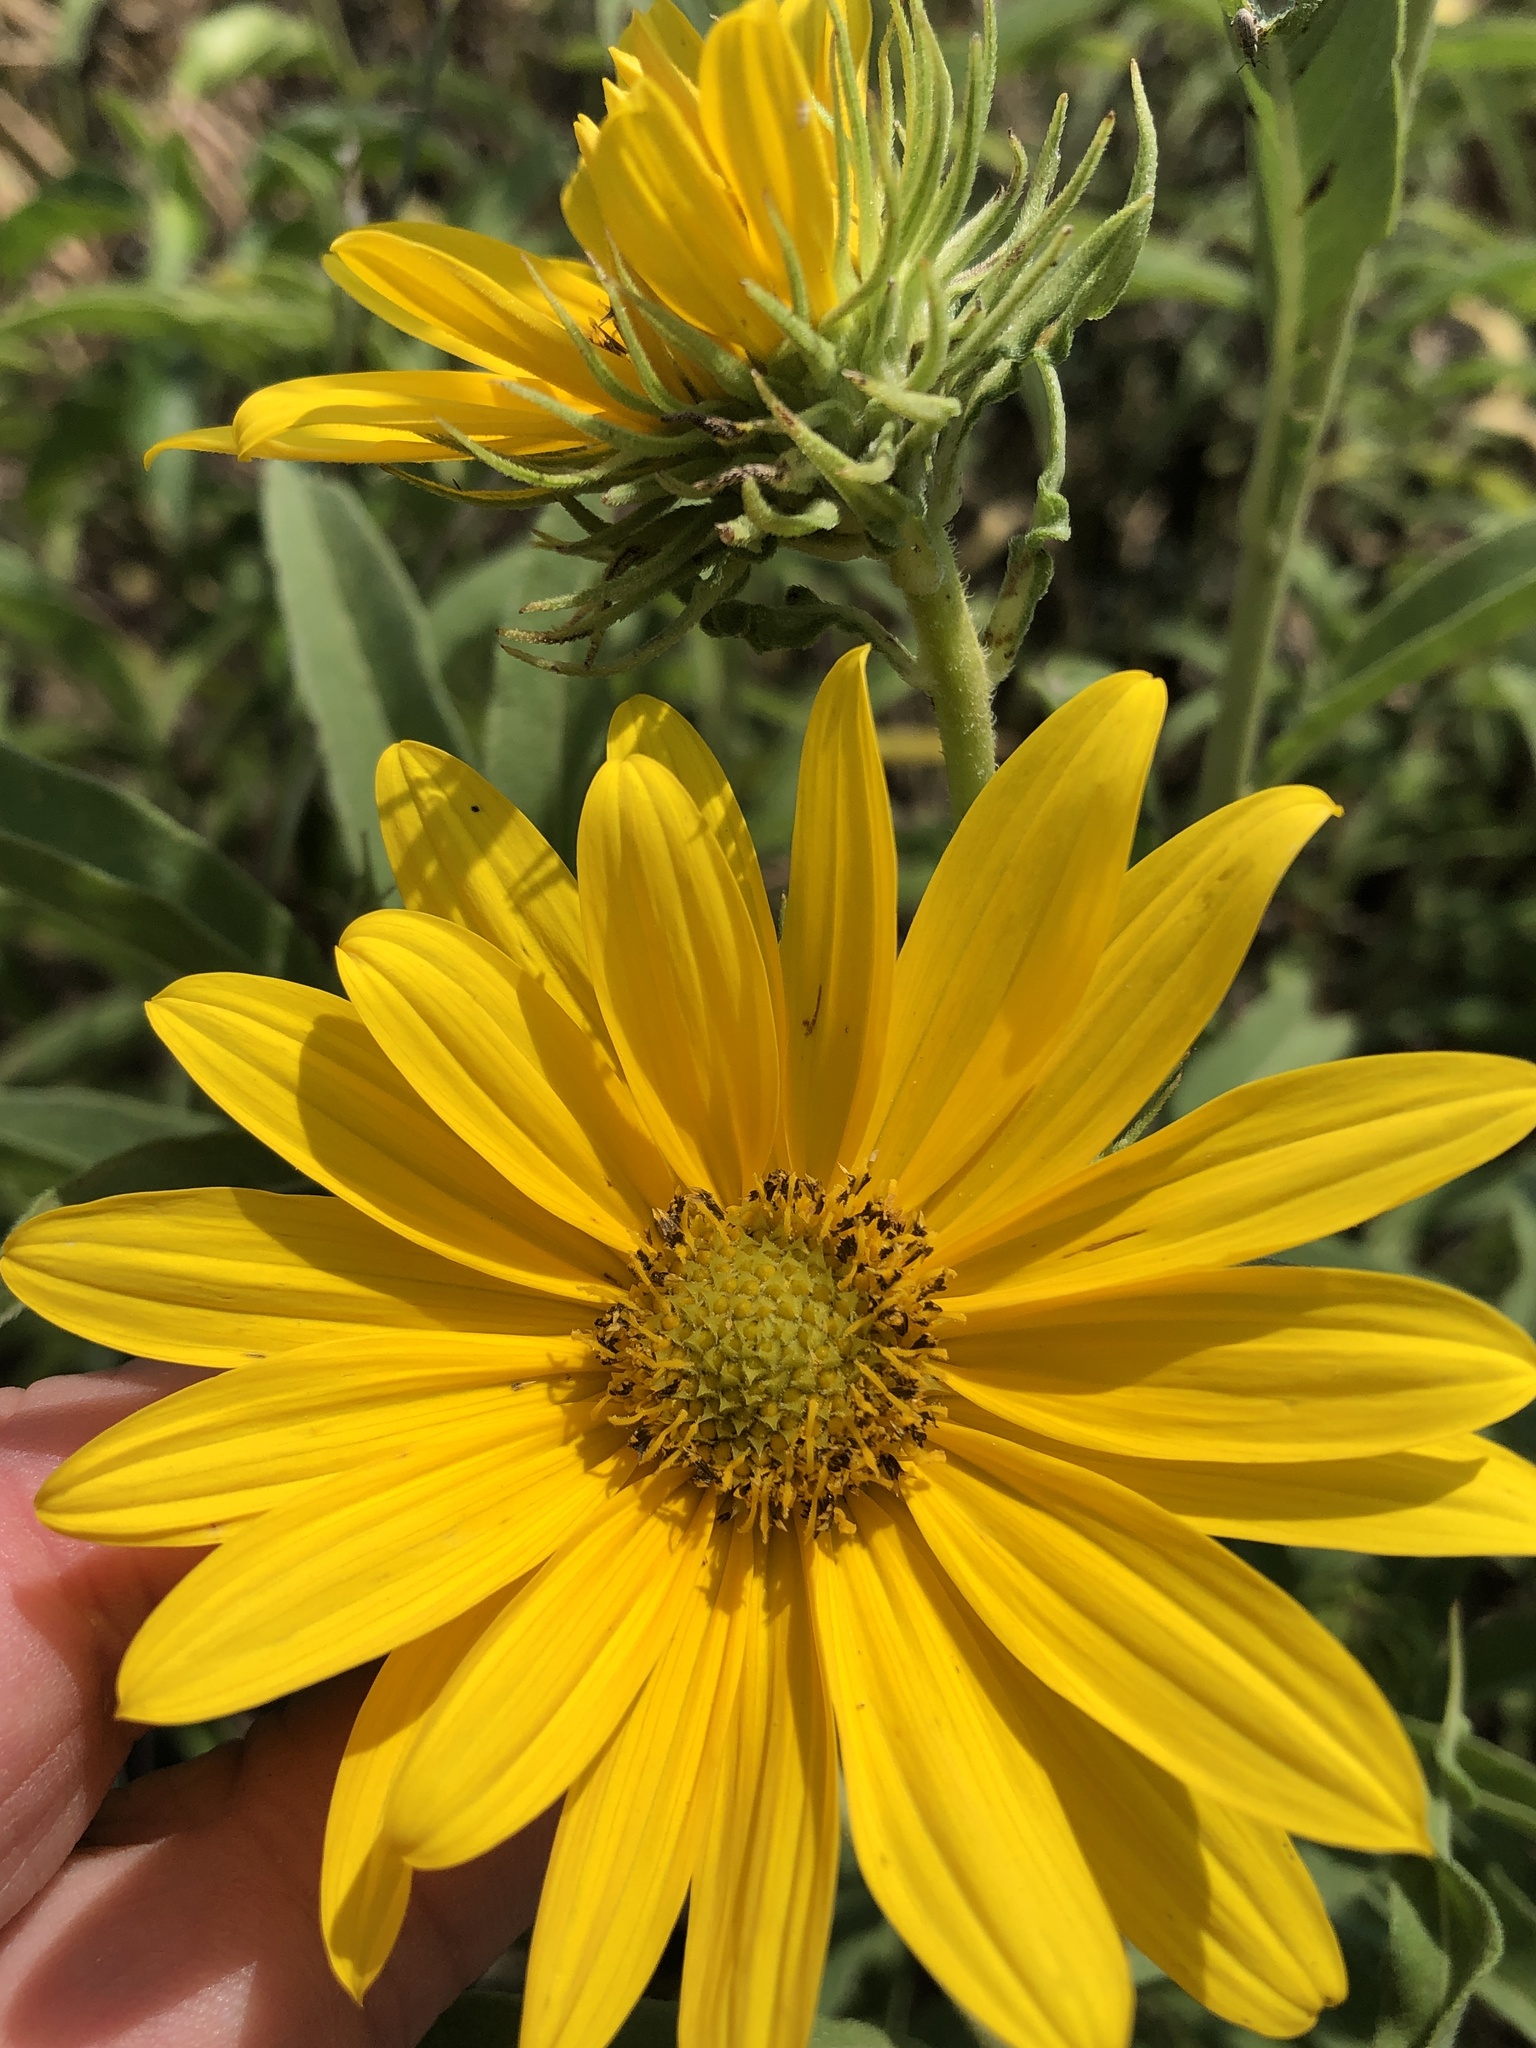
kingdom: Plantae
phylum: Tracheophyta
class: Magnoliopsida
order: Asterales
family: Asteraceae
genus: Helianthus
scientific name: Helianthus maximiliani
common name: Maximilian's sunflower
